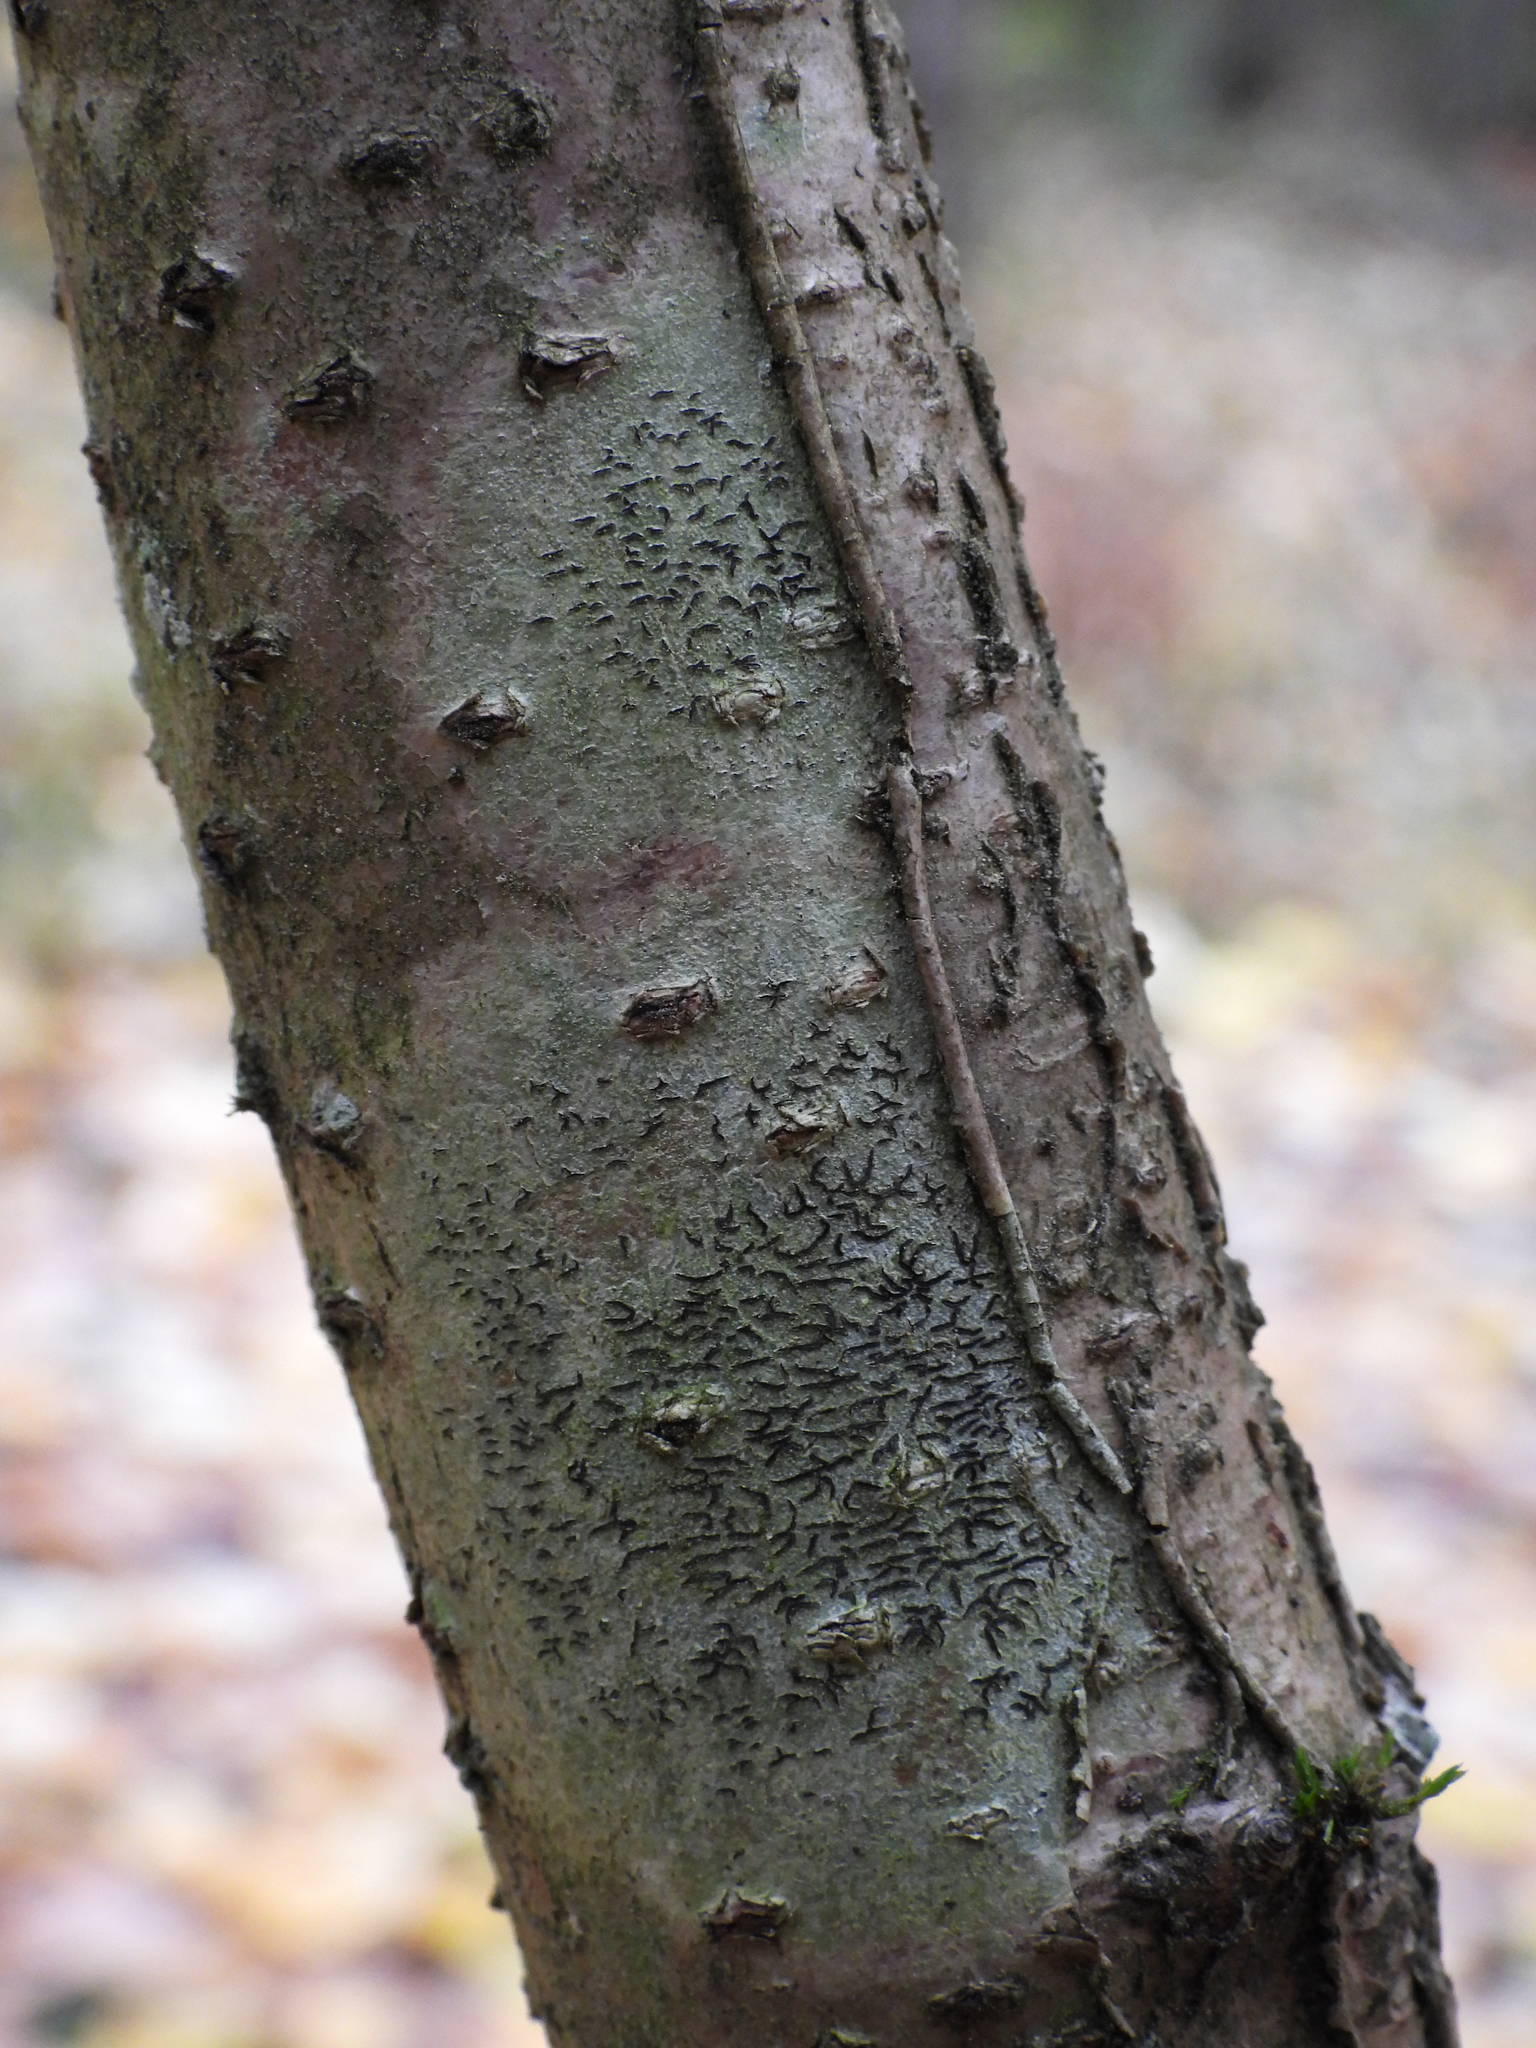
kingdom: Fungi
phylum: Ascomycota
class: Lecanoromycetes
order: Ostropales
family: Graphidaceae
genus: Graphis
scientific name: Graphis scripta
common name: Script lichen
